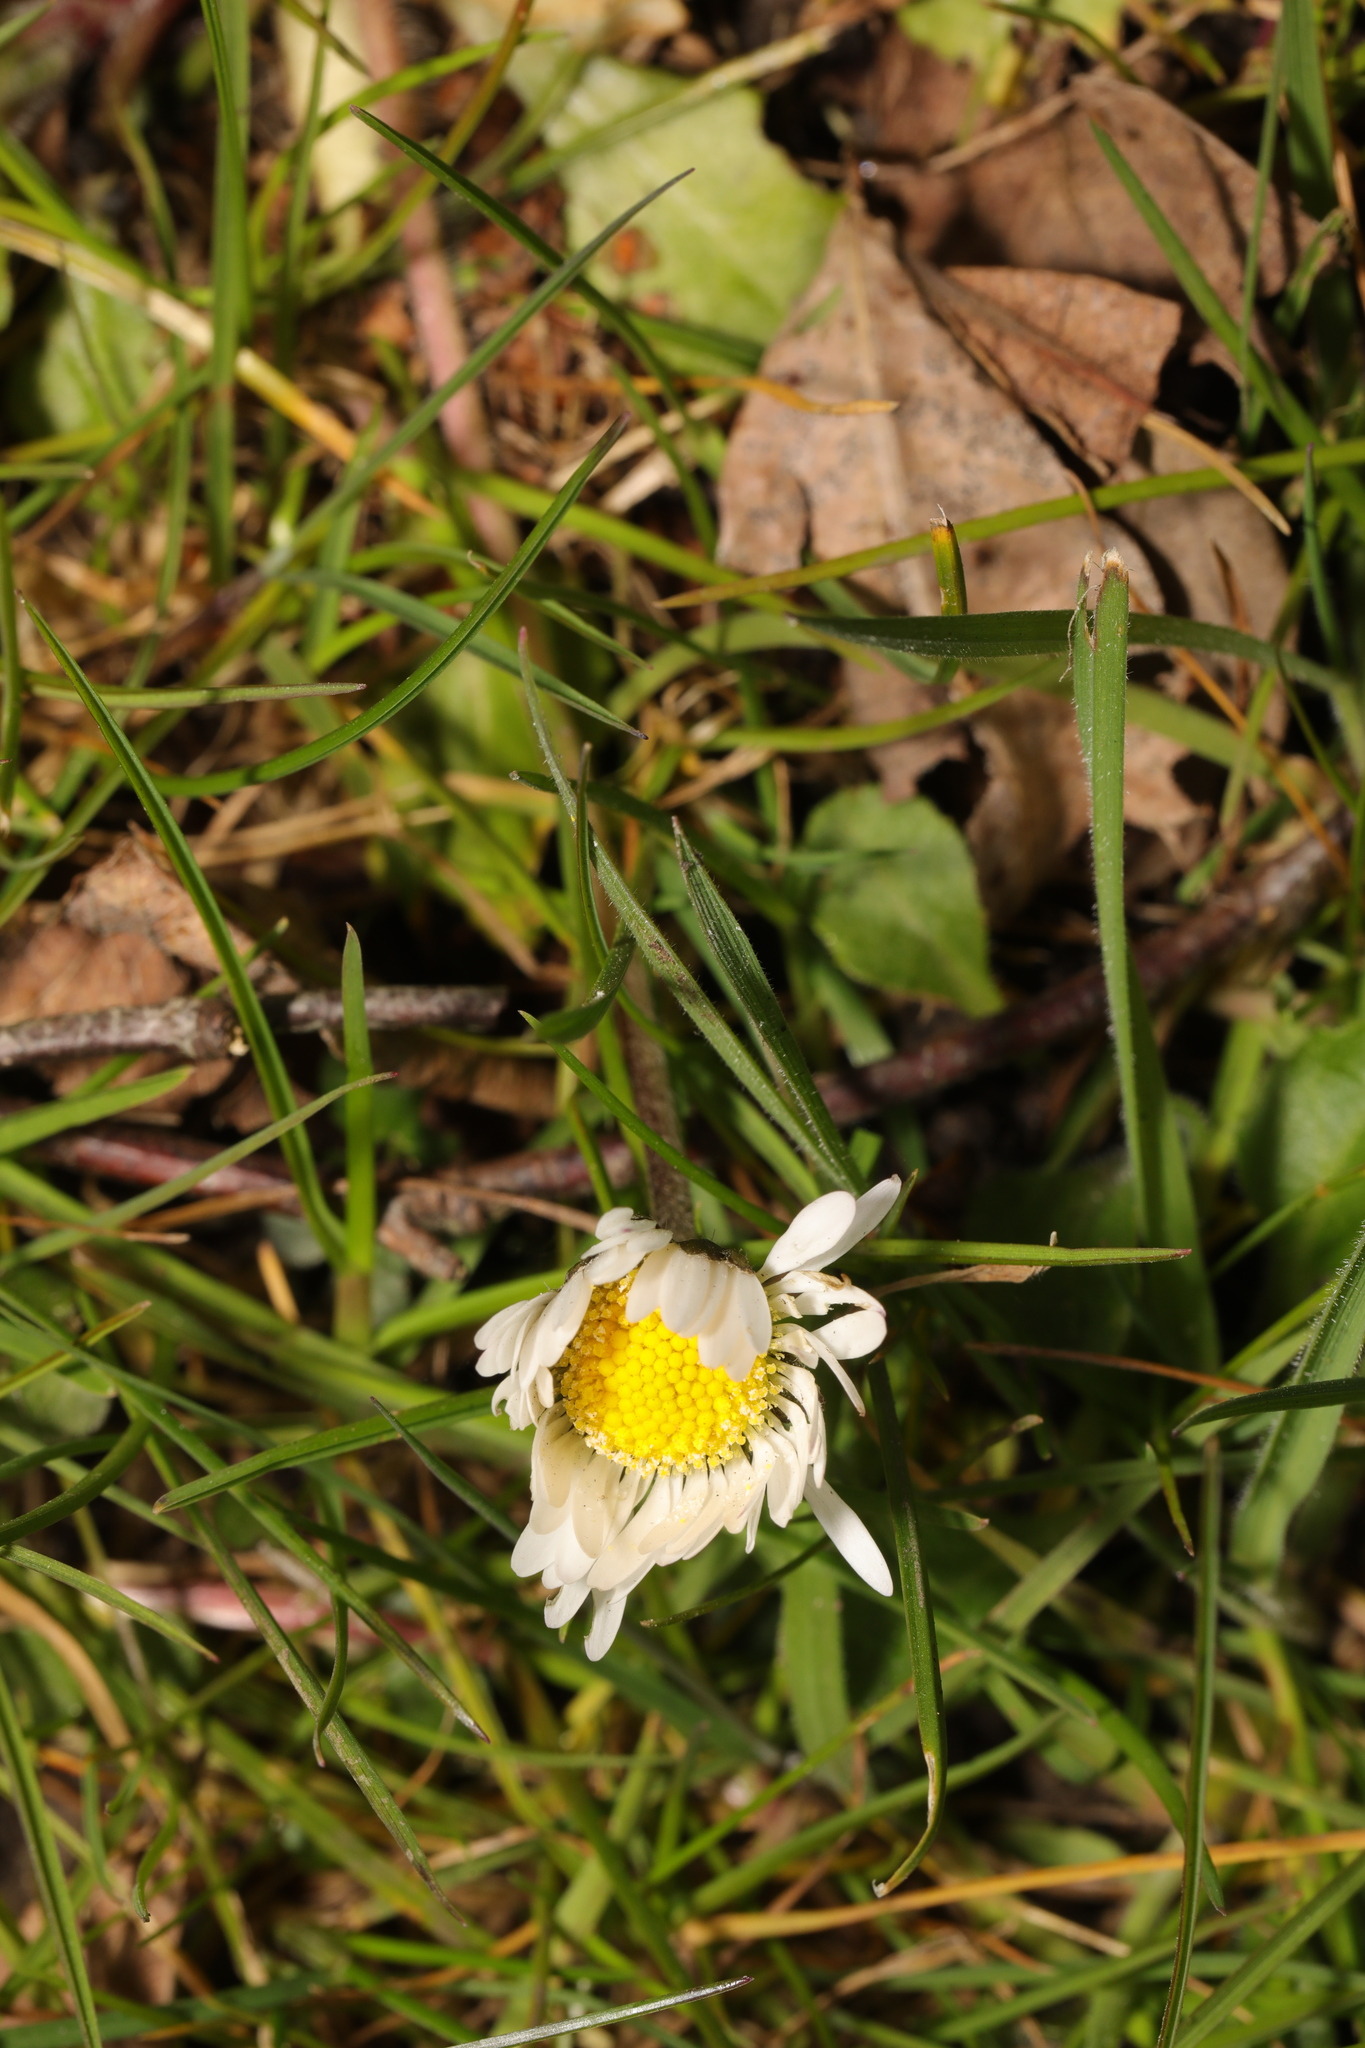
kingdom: Plantae
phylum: Tracheophyta
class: Magnoliopsida
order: Asterales
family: Asteraceae
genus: Bellis
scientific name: Bellis perennis
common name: Lawndaisy
